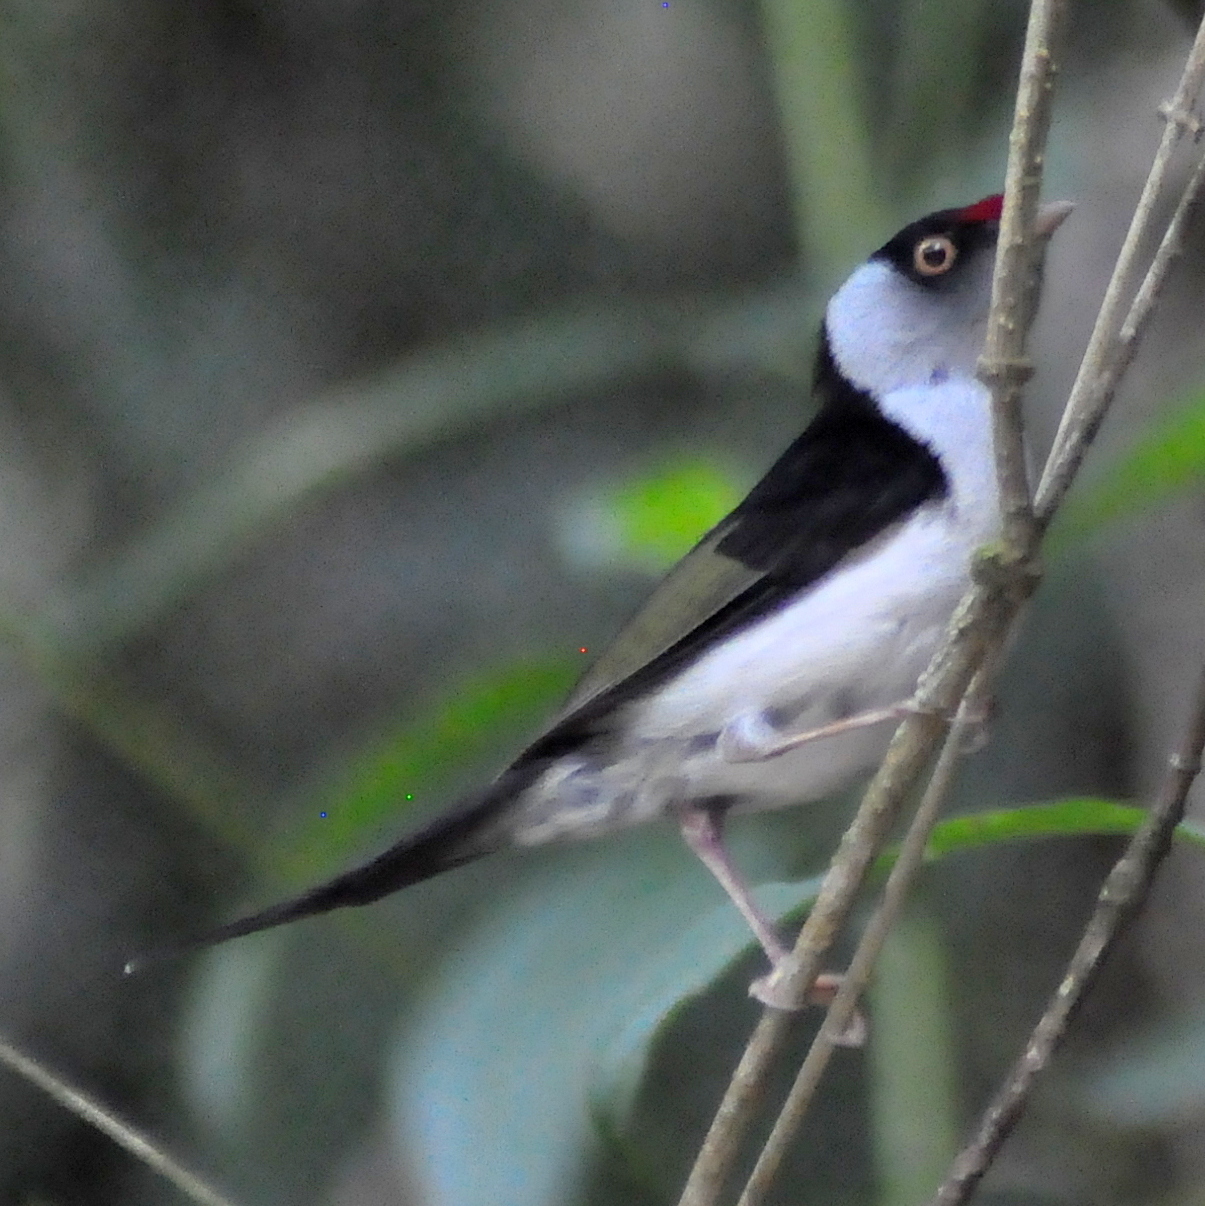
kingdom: Animalia
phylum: Chordata
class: Aves
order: Passeriformes
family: Pipridae
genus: Ilicura
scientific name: Ilicura militaris
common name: Pin-tailed manakin
